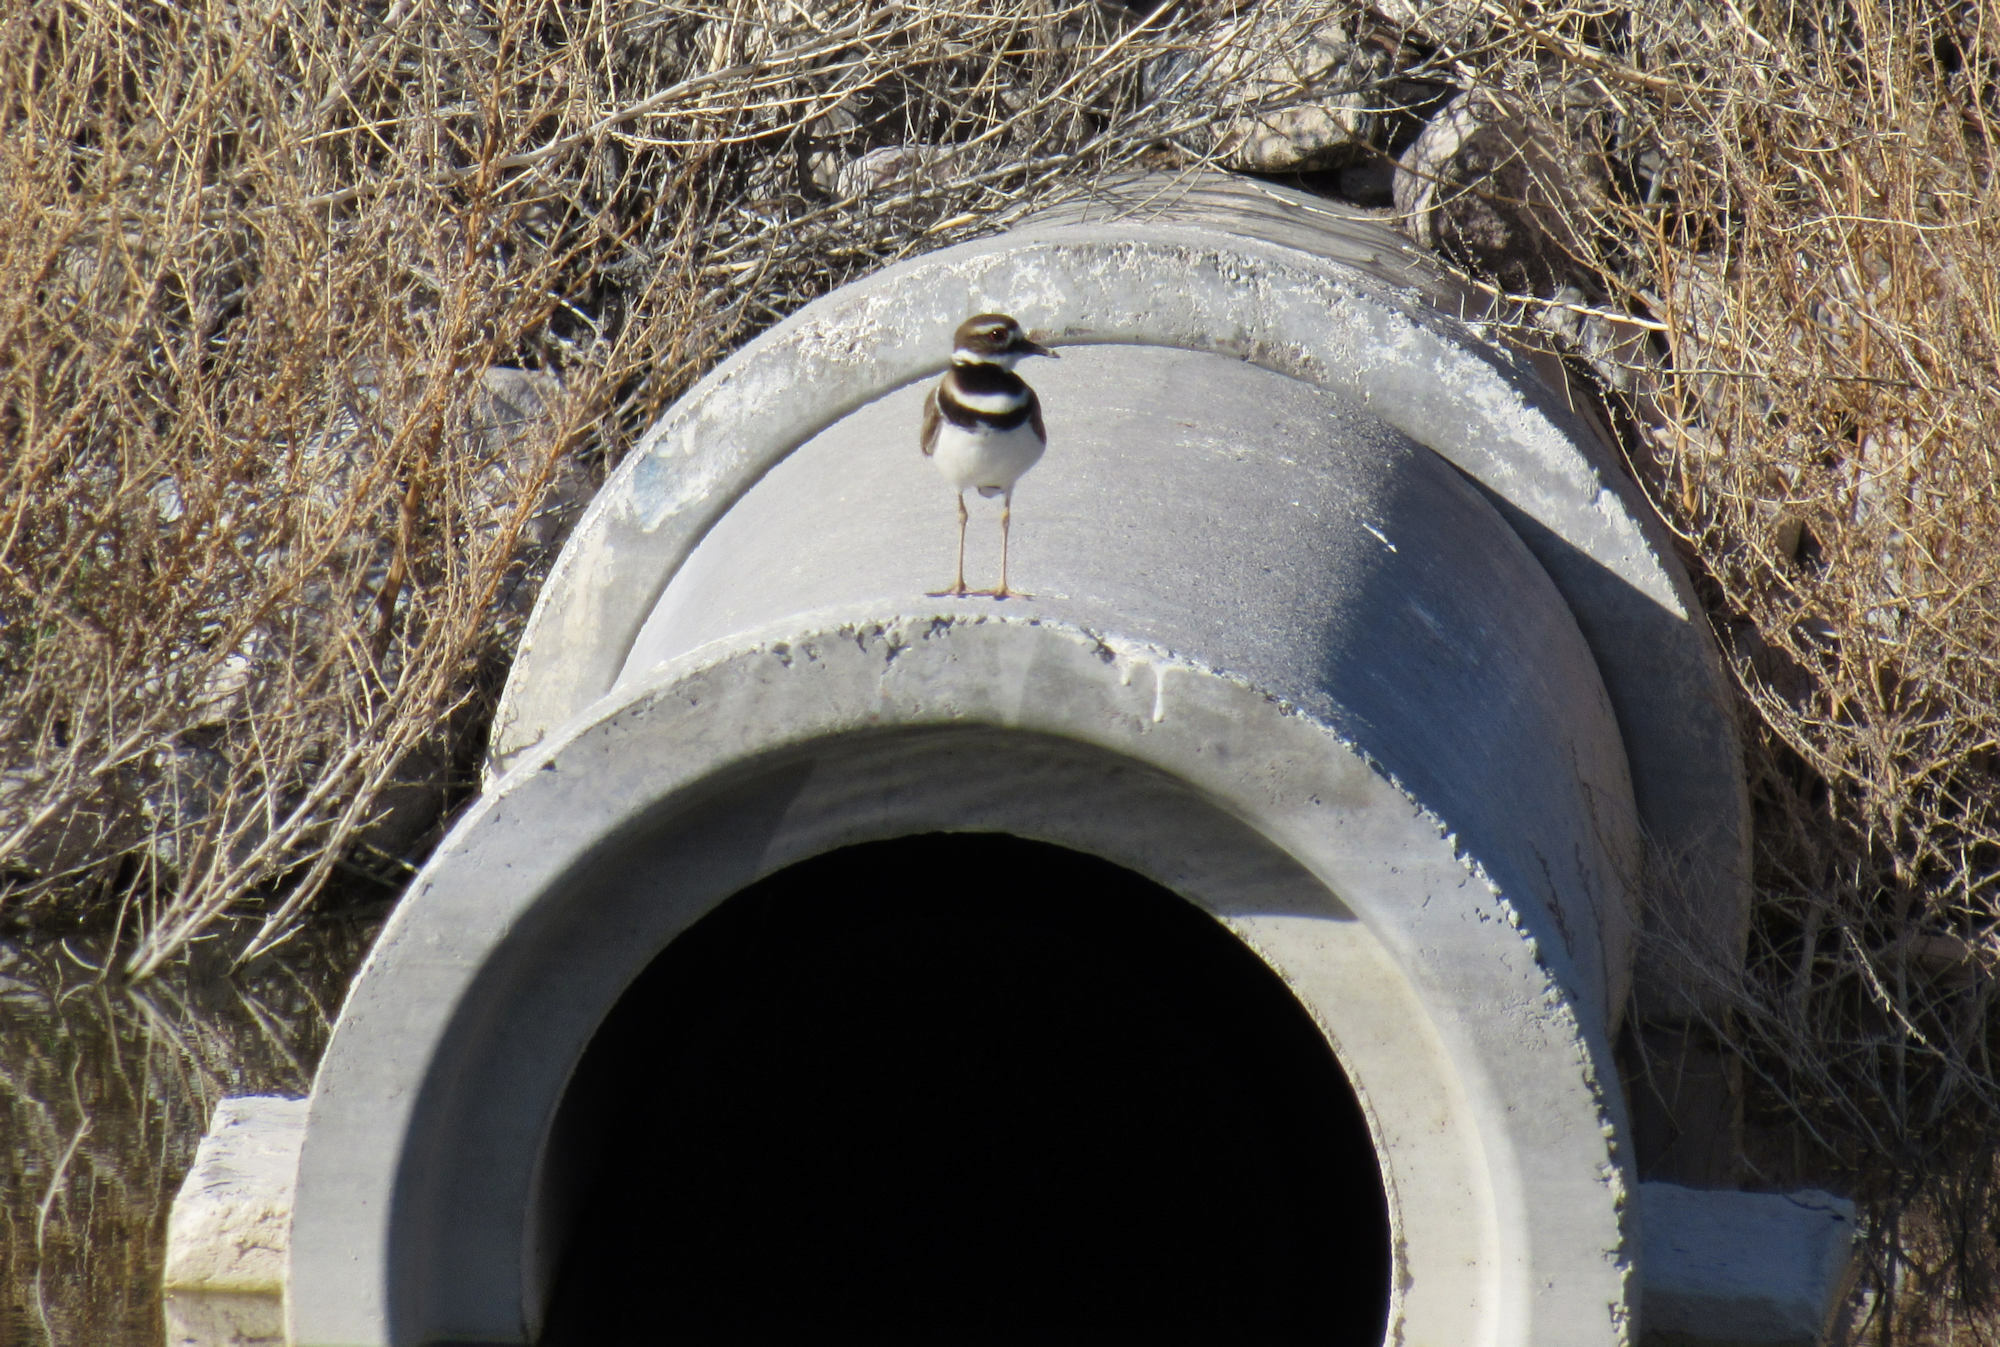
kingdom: Animalia
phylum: Chordata
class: Aves
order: Charadriiformes
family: Charadriidae
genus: Charadrius
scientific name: Charadrius vociferus
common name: Killdeer
